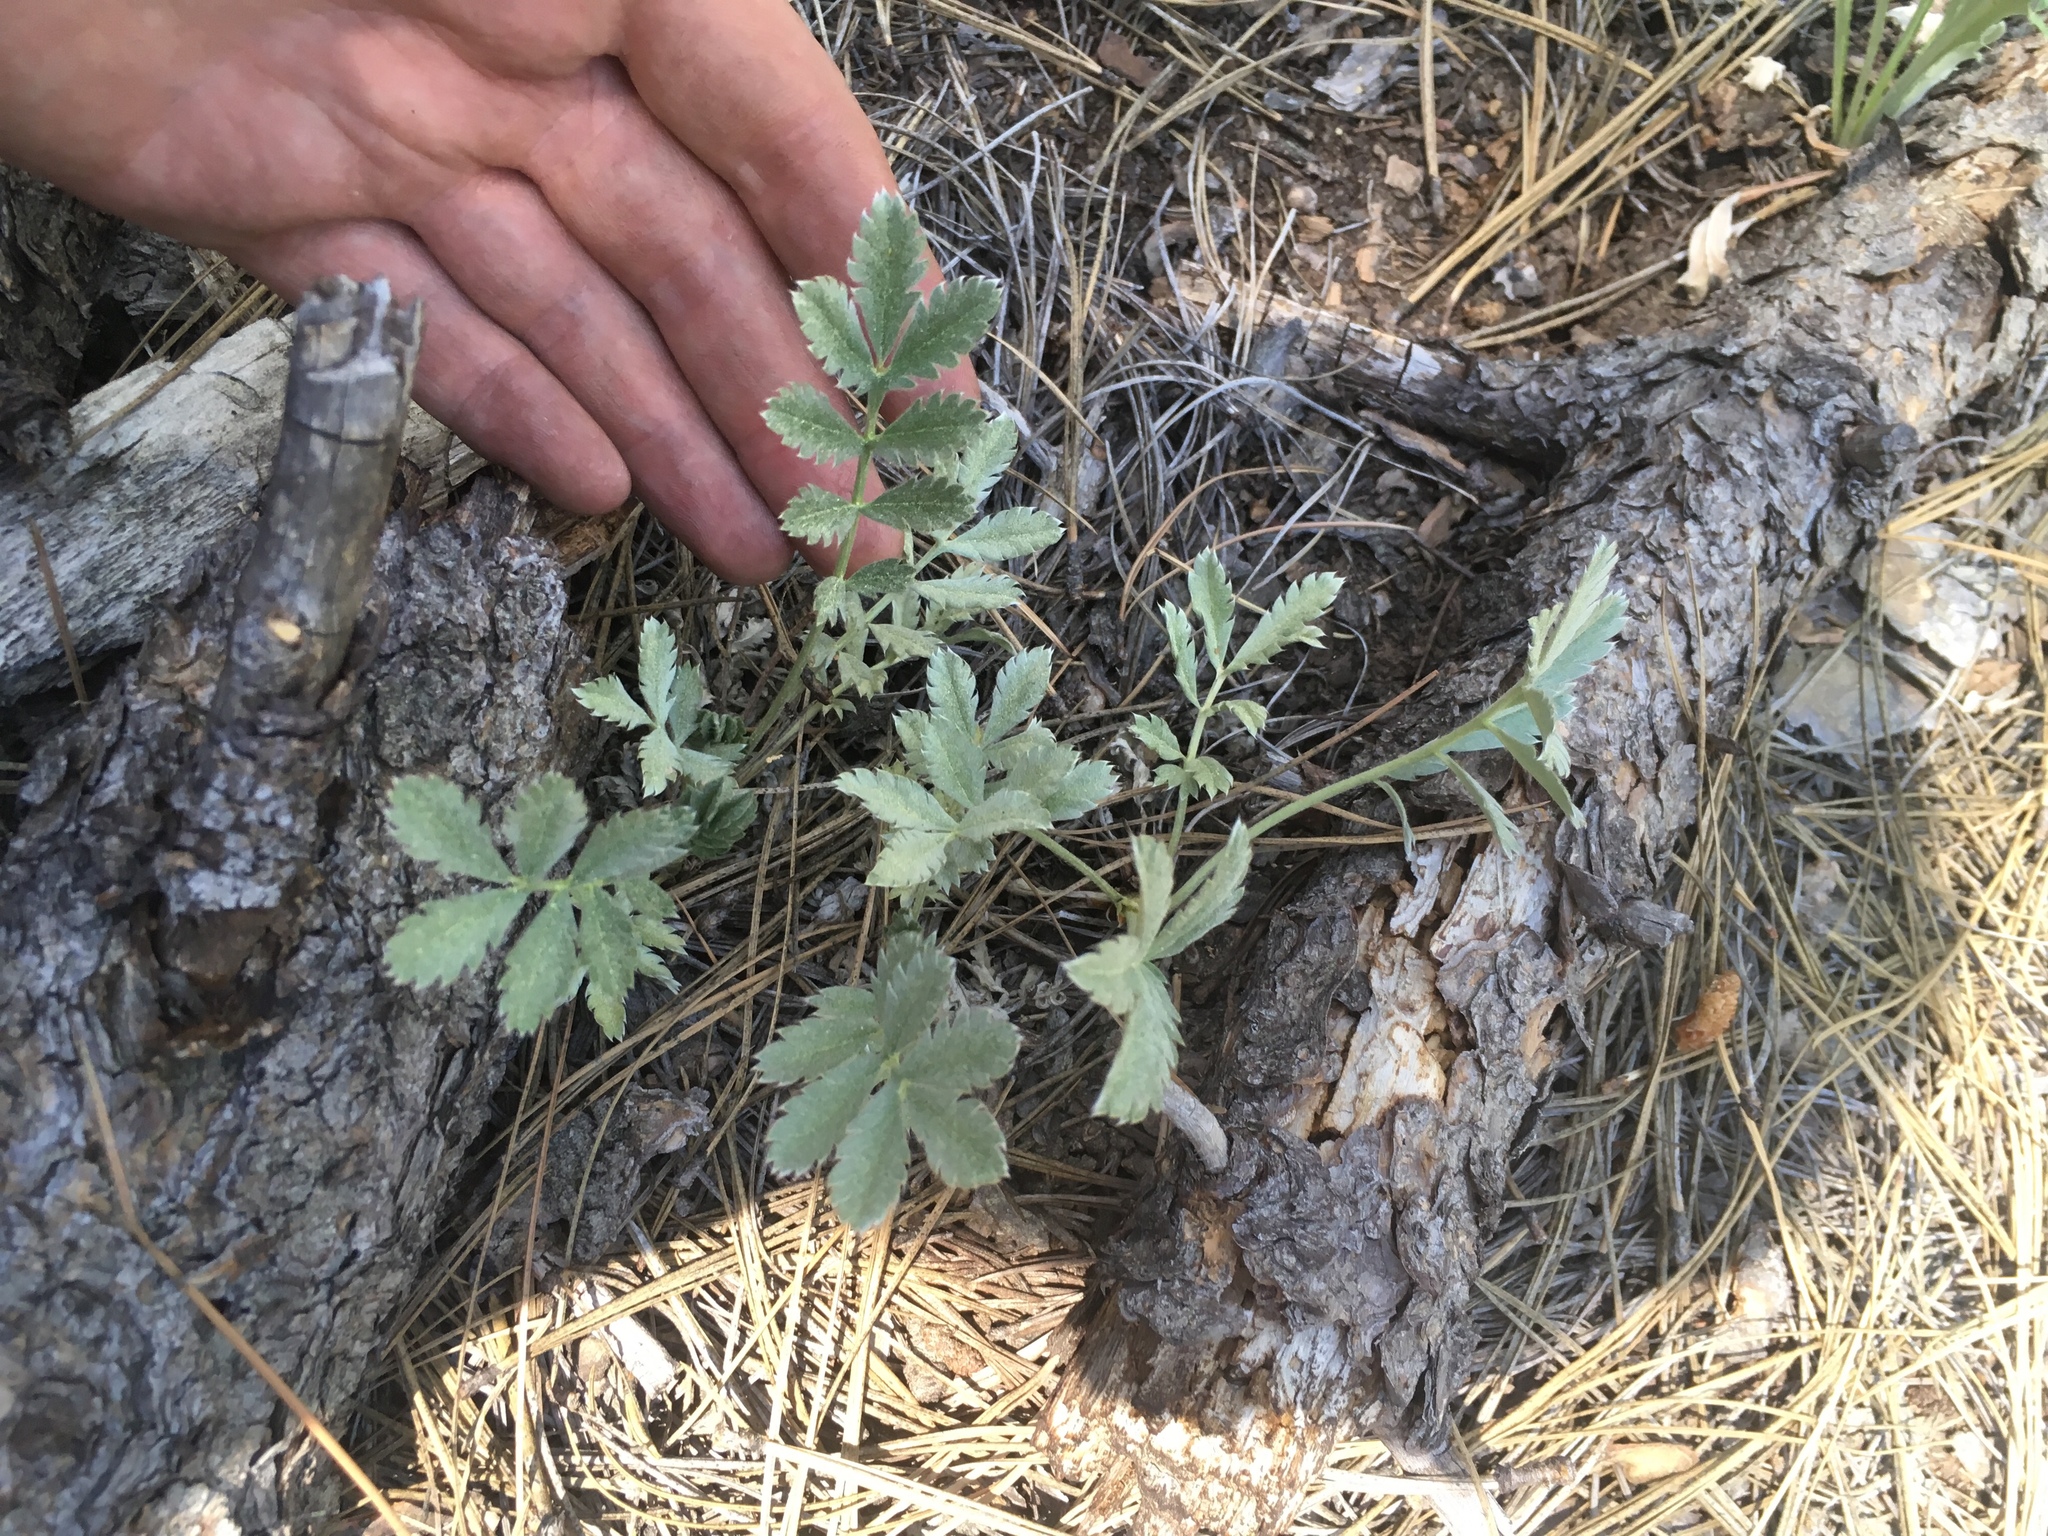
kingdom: Plantae
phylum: Tracheophyta
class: Magnoliopsida
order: Rosales
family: Rosaceae
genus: Potentilla
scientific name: Potentilla hippiana
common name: Woolly cinquefoil
